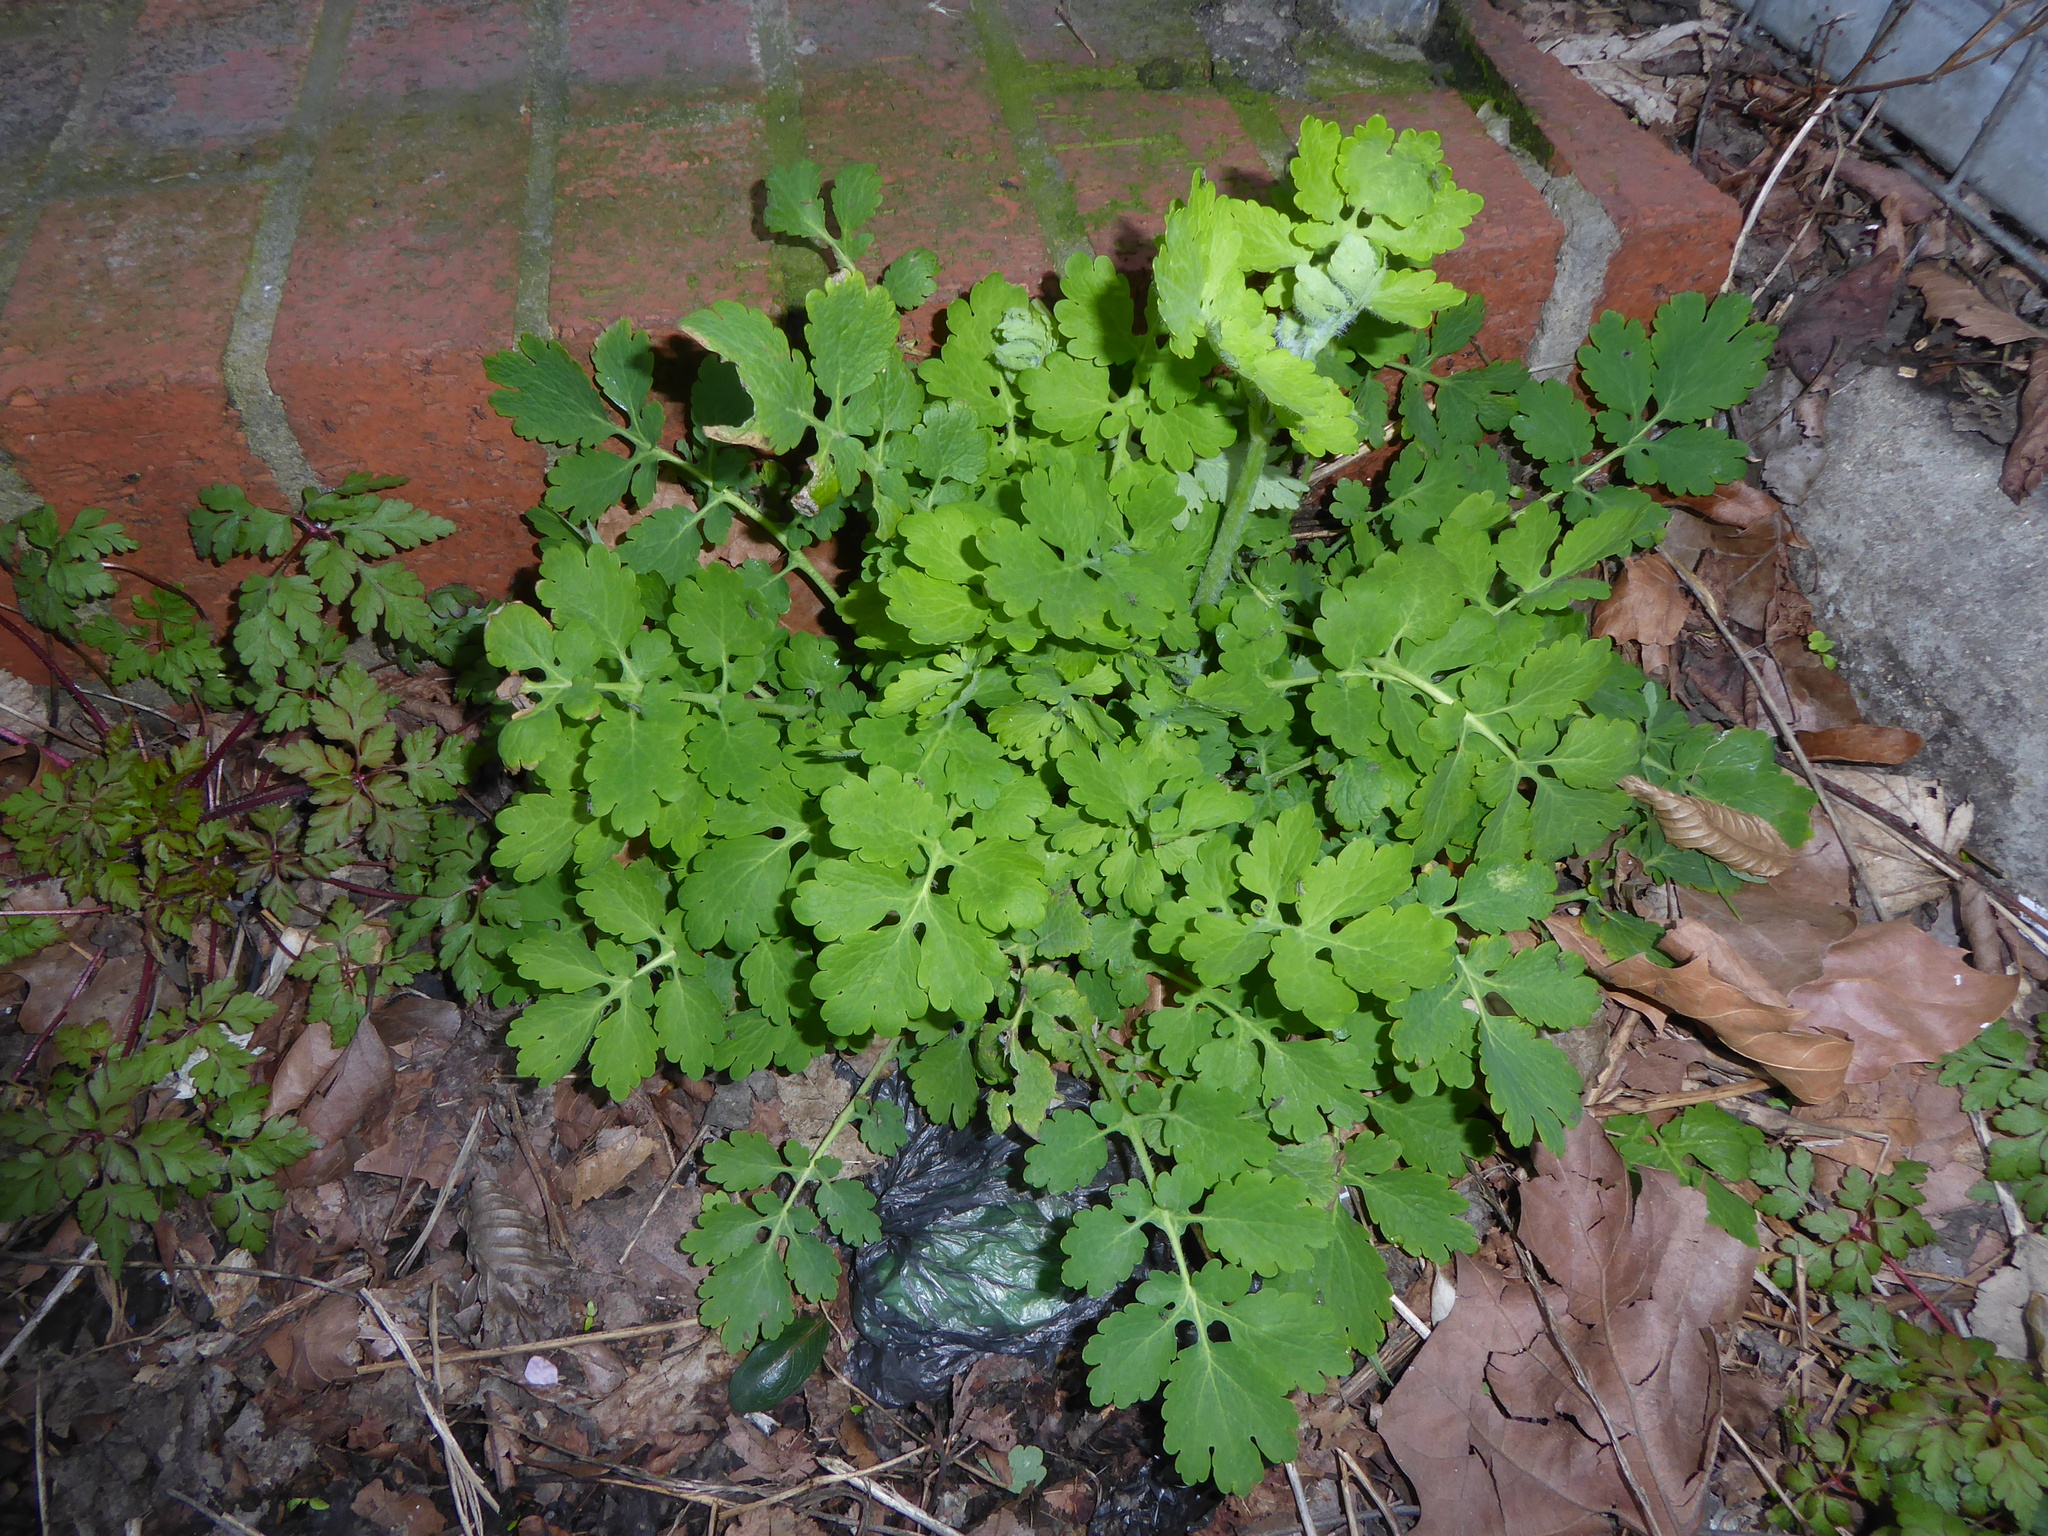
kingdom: Plantae
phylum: Tracheophyta
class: Magnoliopsida
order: Ranunculales
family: Papaveraceae
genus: Chelidonium
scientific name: Chelidonium majus
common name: Greater celandine
